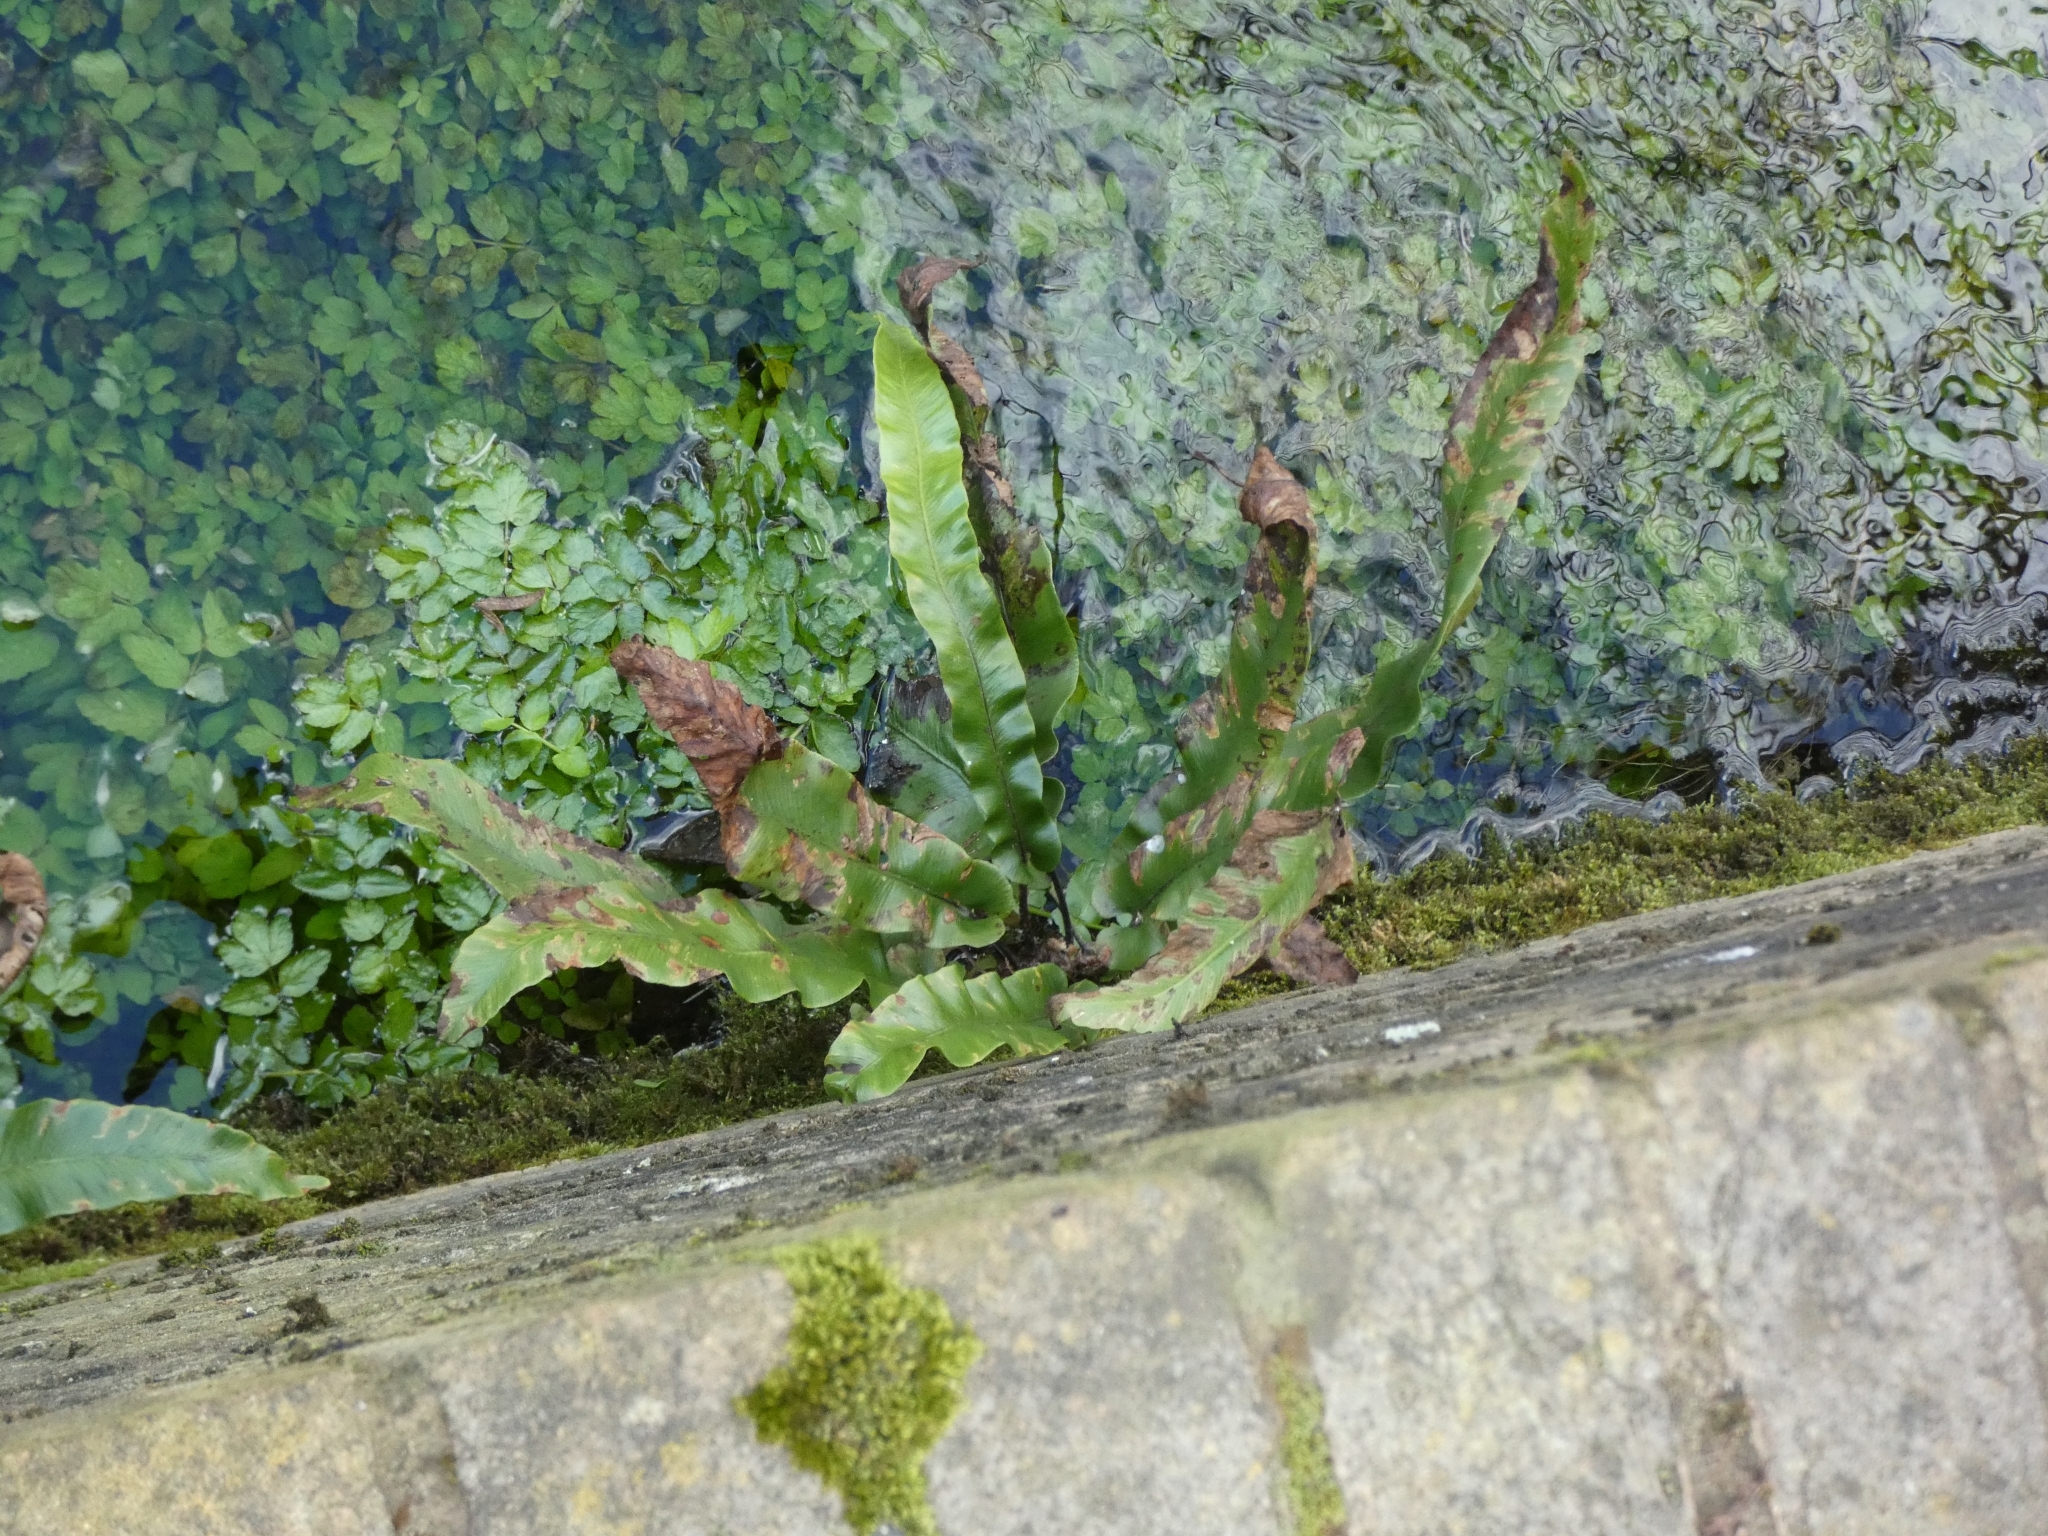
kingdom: Plantae
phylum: Tracheophyta
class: Polypodiopsida
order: Polypodiales
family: Aspleniaceae
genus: Asplenium
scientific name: Asplenium scolopendrium
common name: Hart's-tongue fern
